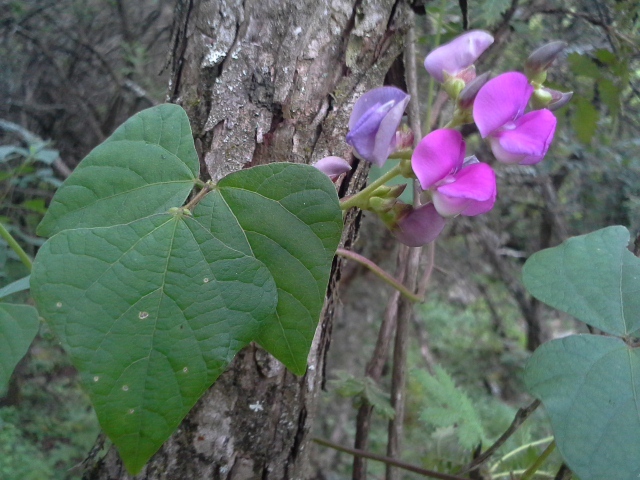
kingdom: Plantae
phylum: Tracheophyta
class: Magnoliopsida
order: Fabales
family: Fabaceae
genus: Lablab
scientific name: Lablab purpureus
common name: Lablab-bean
